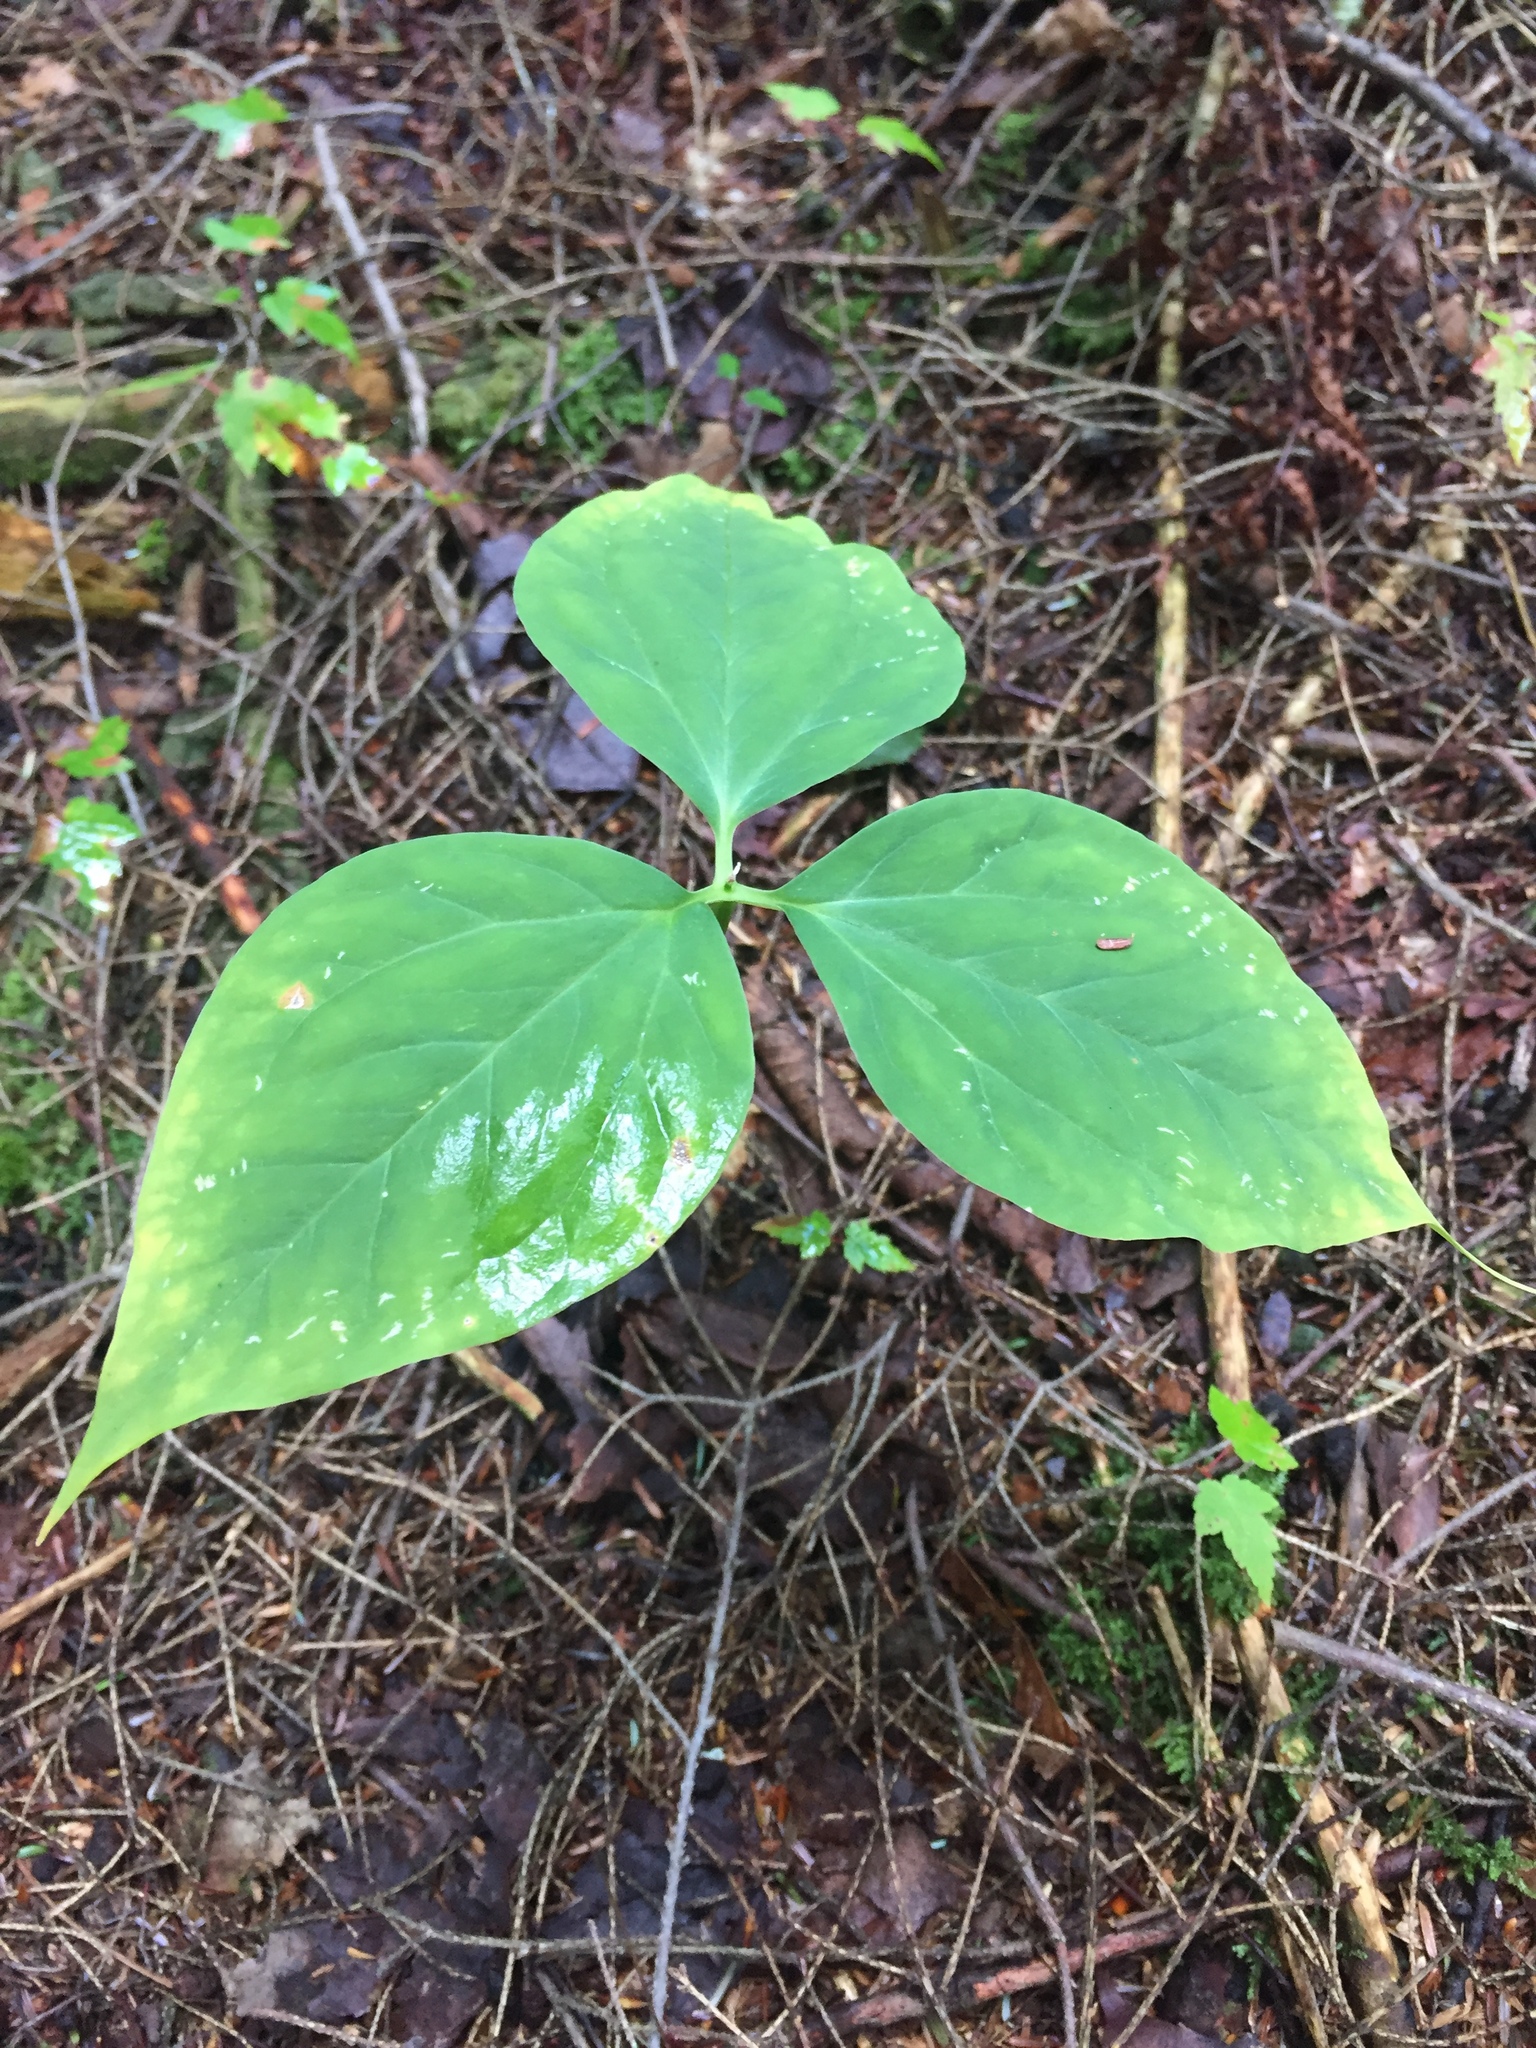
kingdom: Plantae
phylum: Tracheophyta
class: Liliopsida
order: Liliales
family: Melanthiaceae
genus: Trillium
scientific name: Trillium undulatum
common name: Paint trillium
